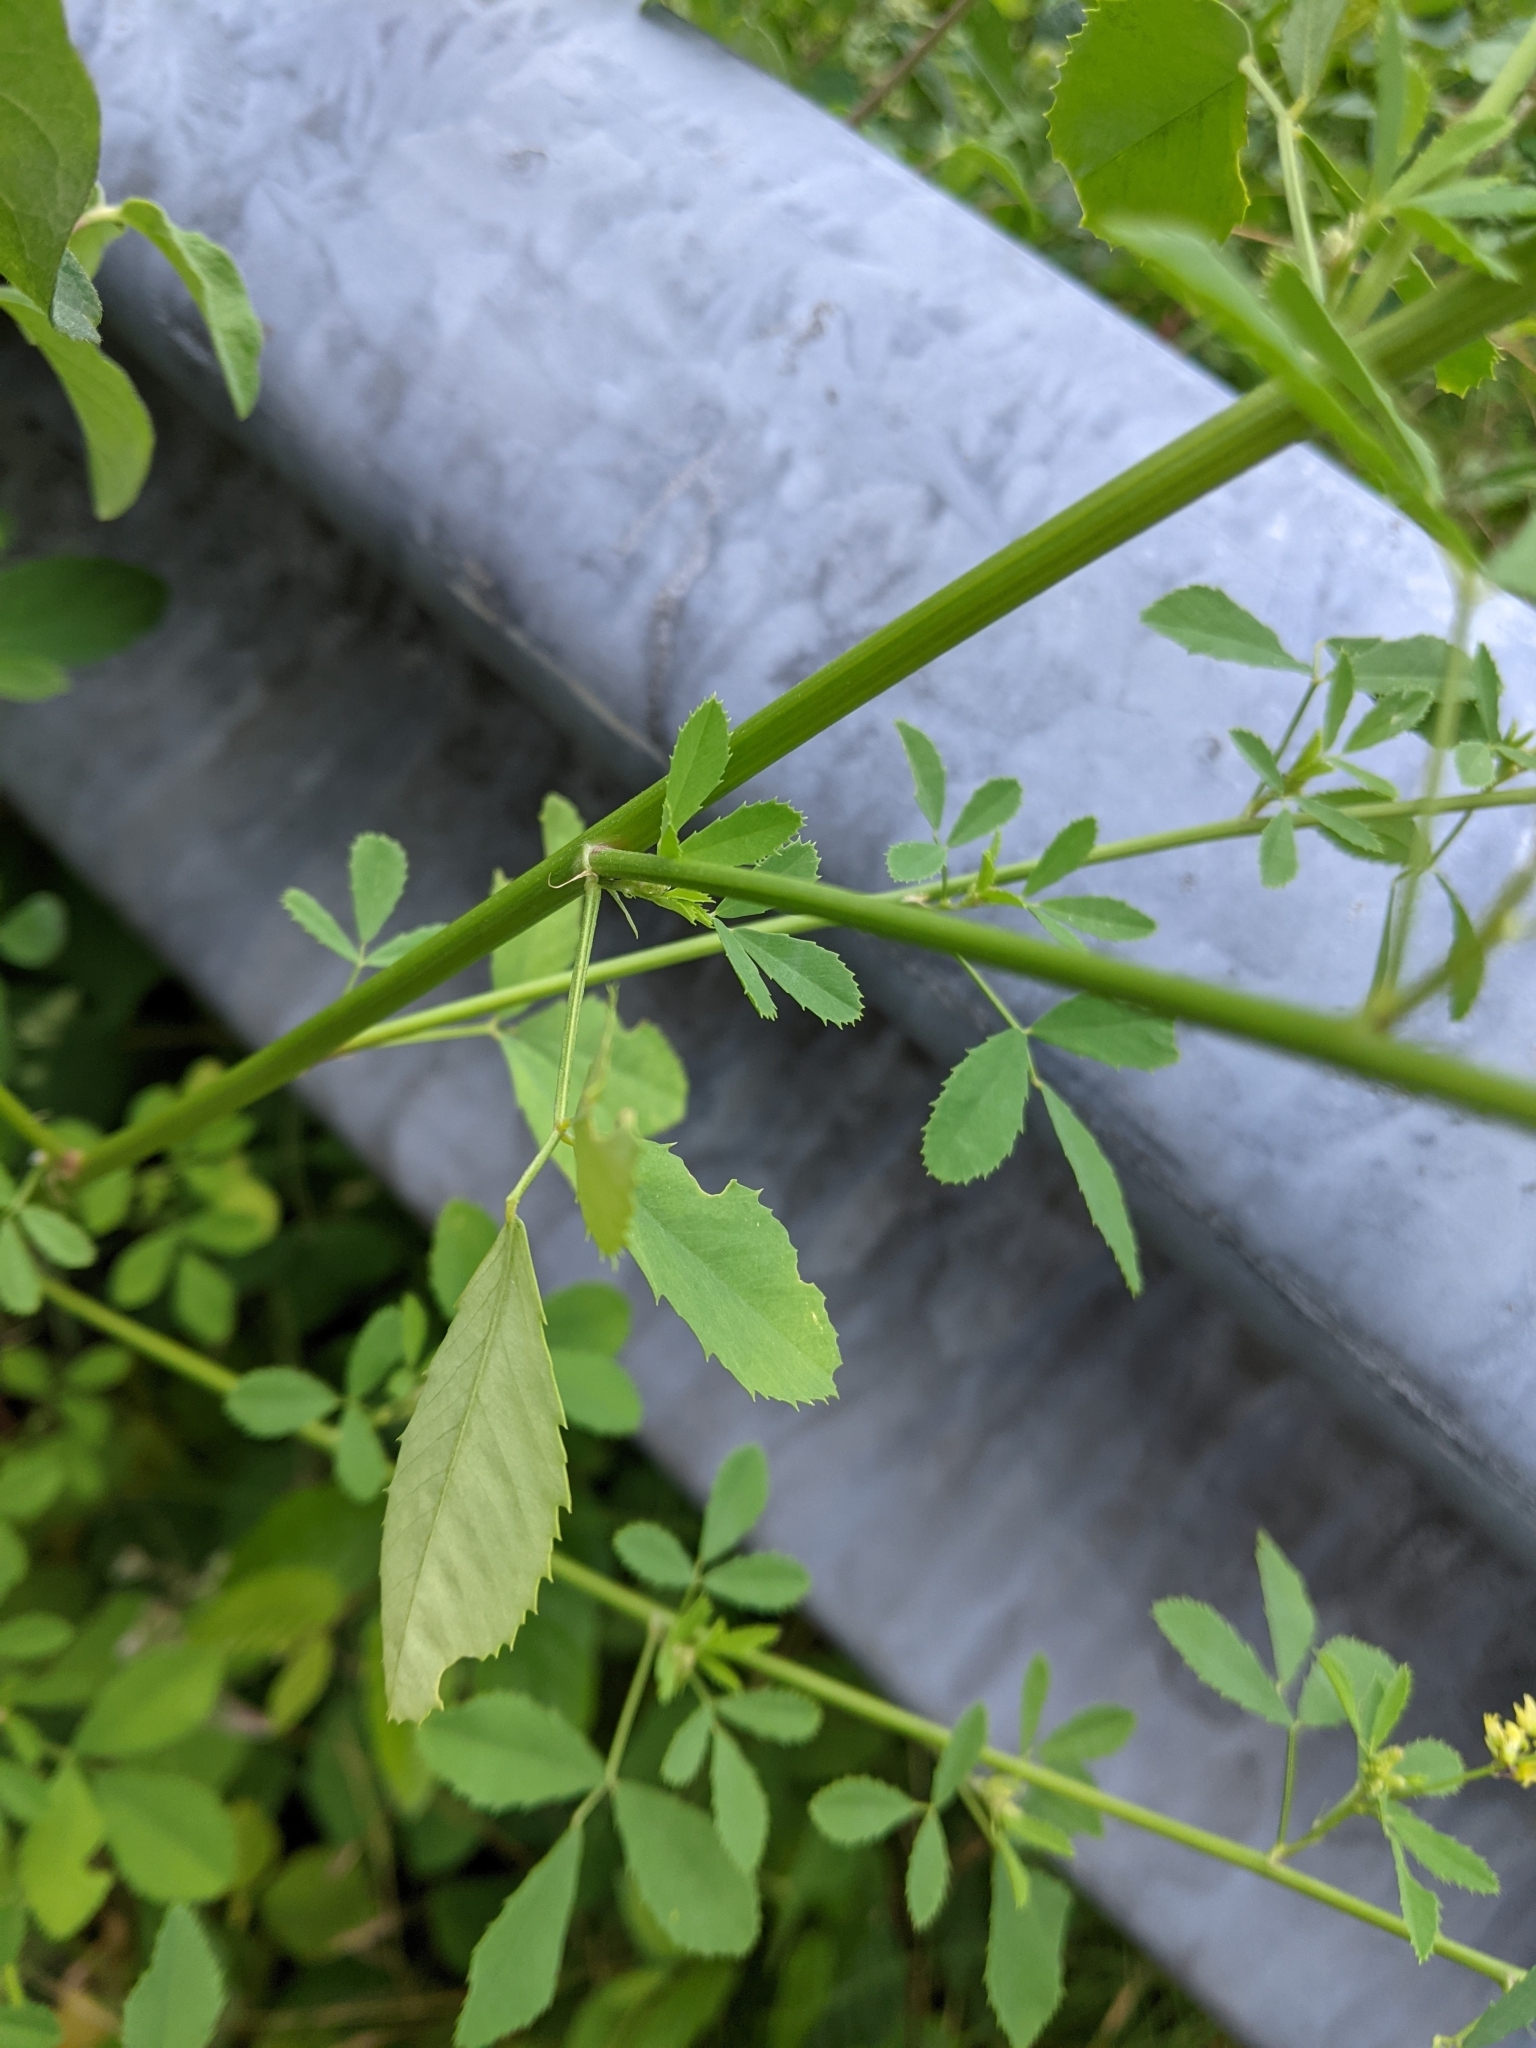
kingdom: Plantae
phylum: Tracheophyta
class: Magnoliopsida
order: Fabales
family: Fabaceae
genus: Melilotus
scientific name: Melilotus officinalis
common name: Sweetclover
